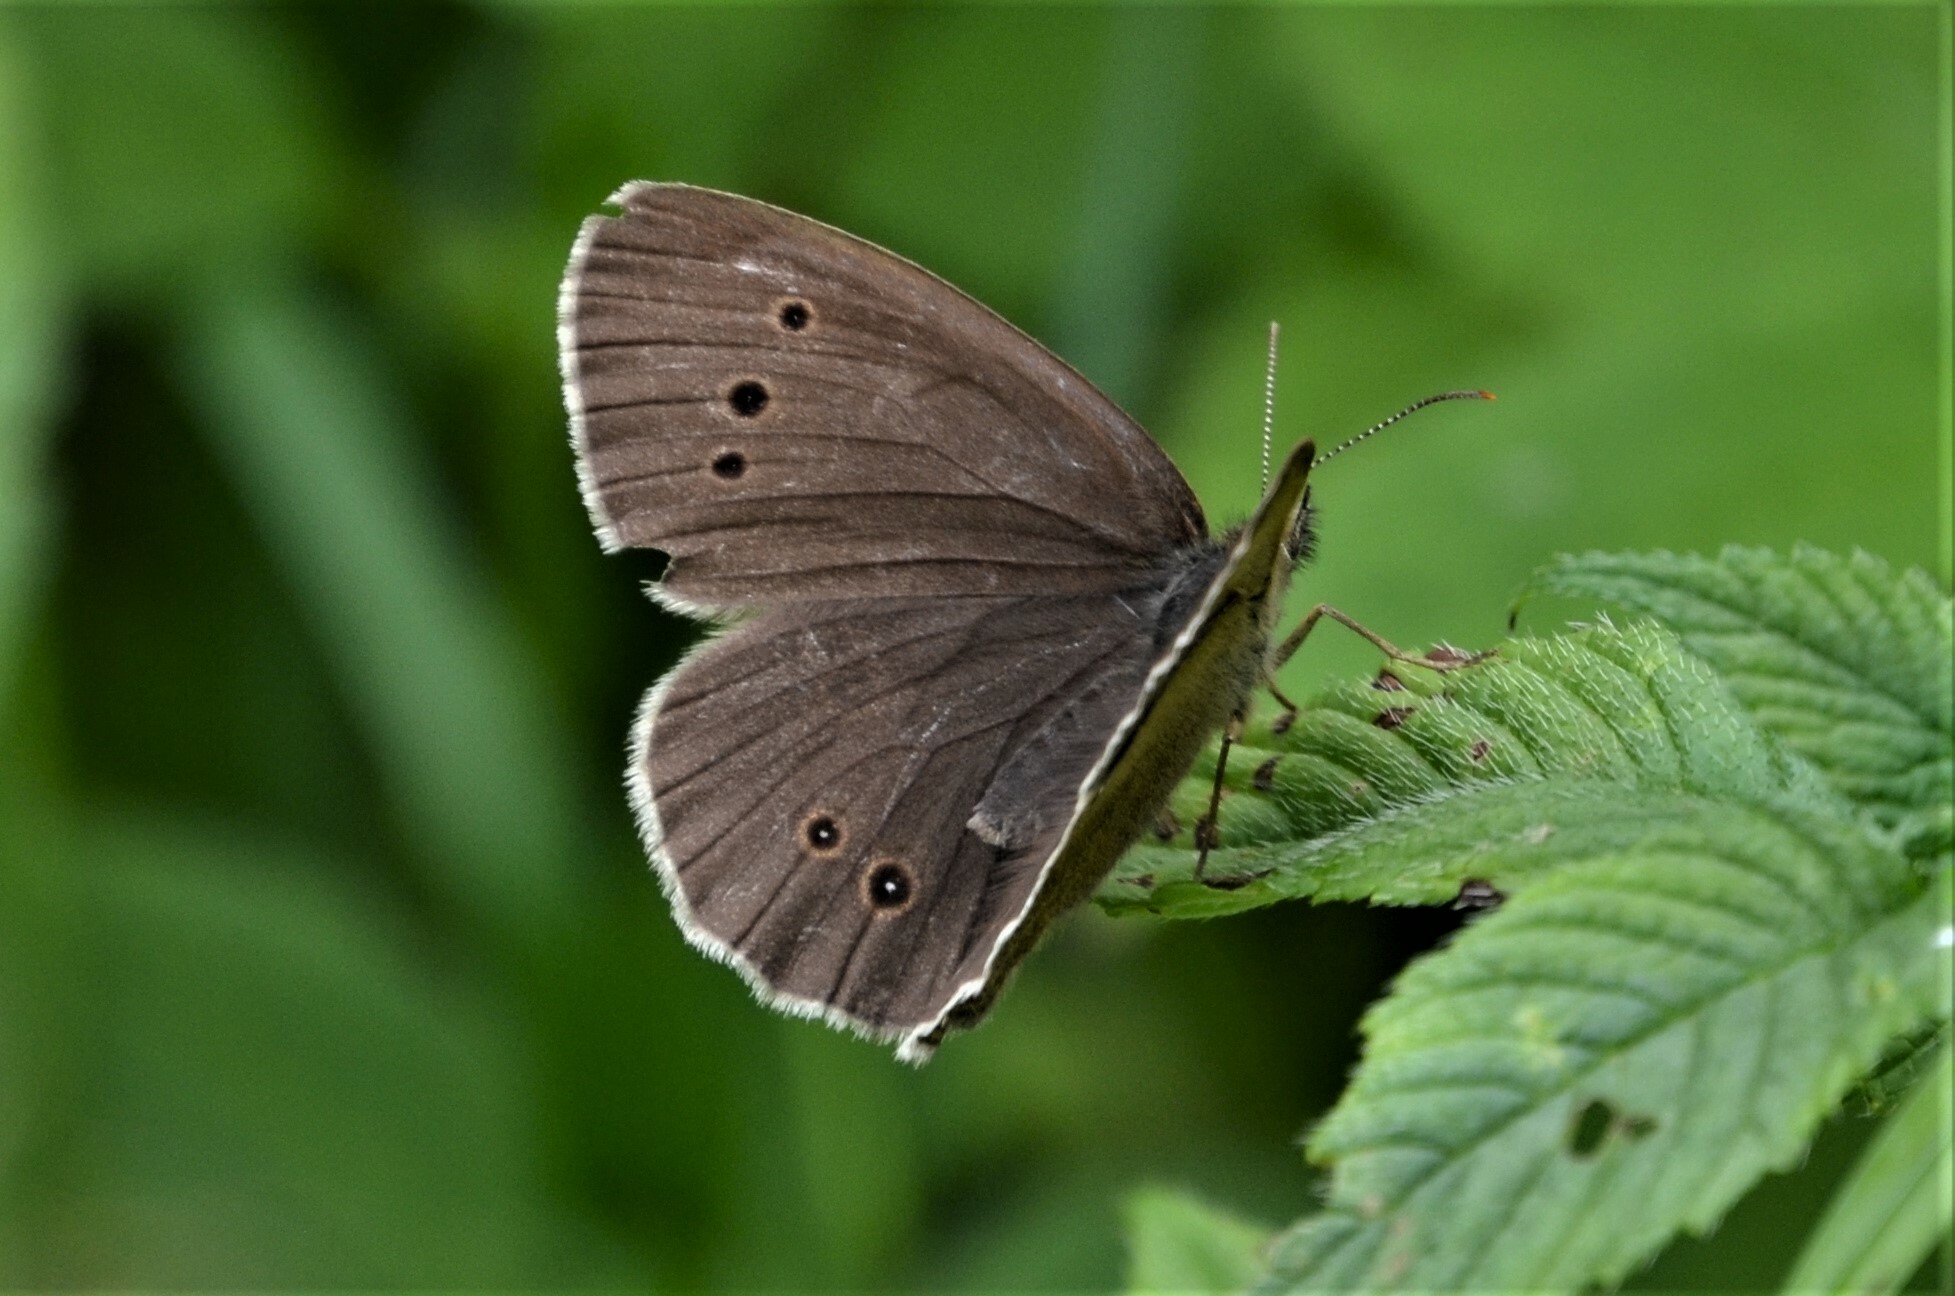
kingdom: Animalia
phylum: Arthropoda
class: Insecta
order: Lepidoptera
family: Nymphalidae
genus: Aphantopus
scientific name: Aphantopus hyperantus
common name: Ringlet
